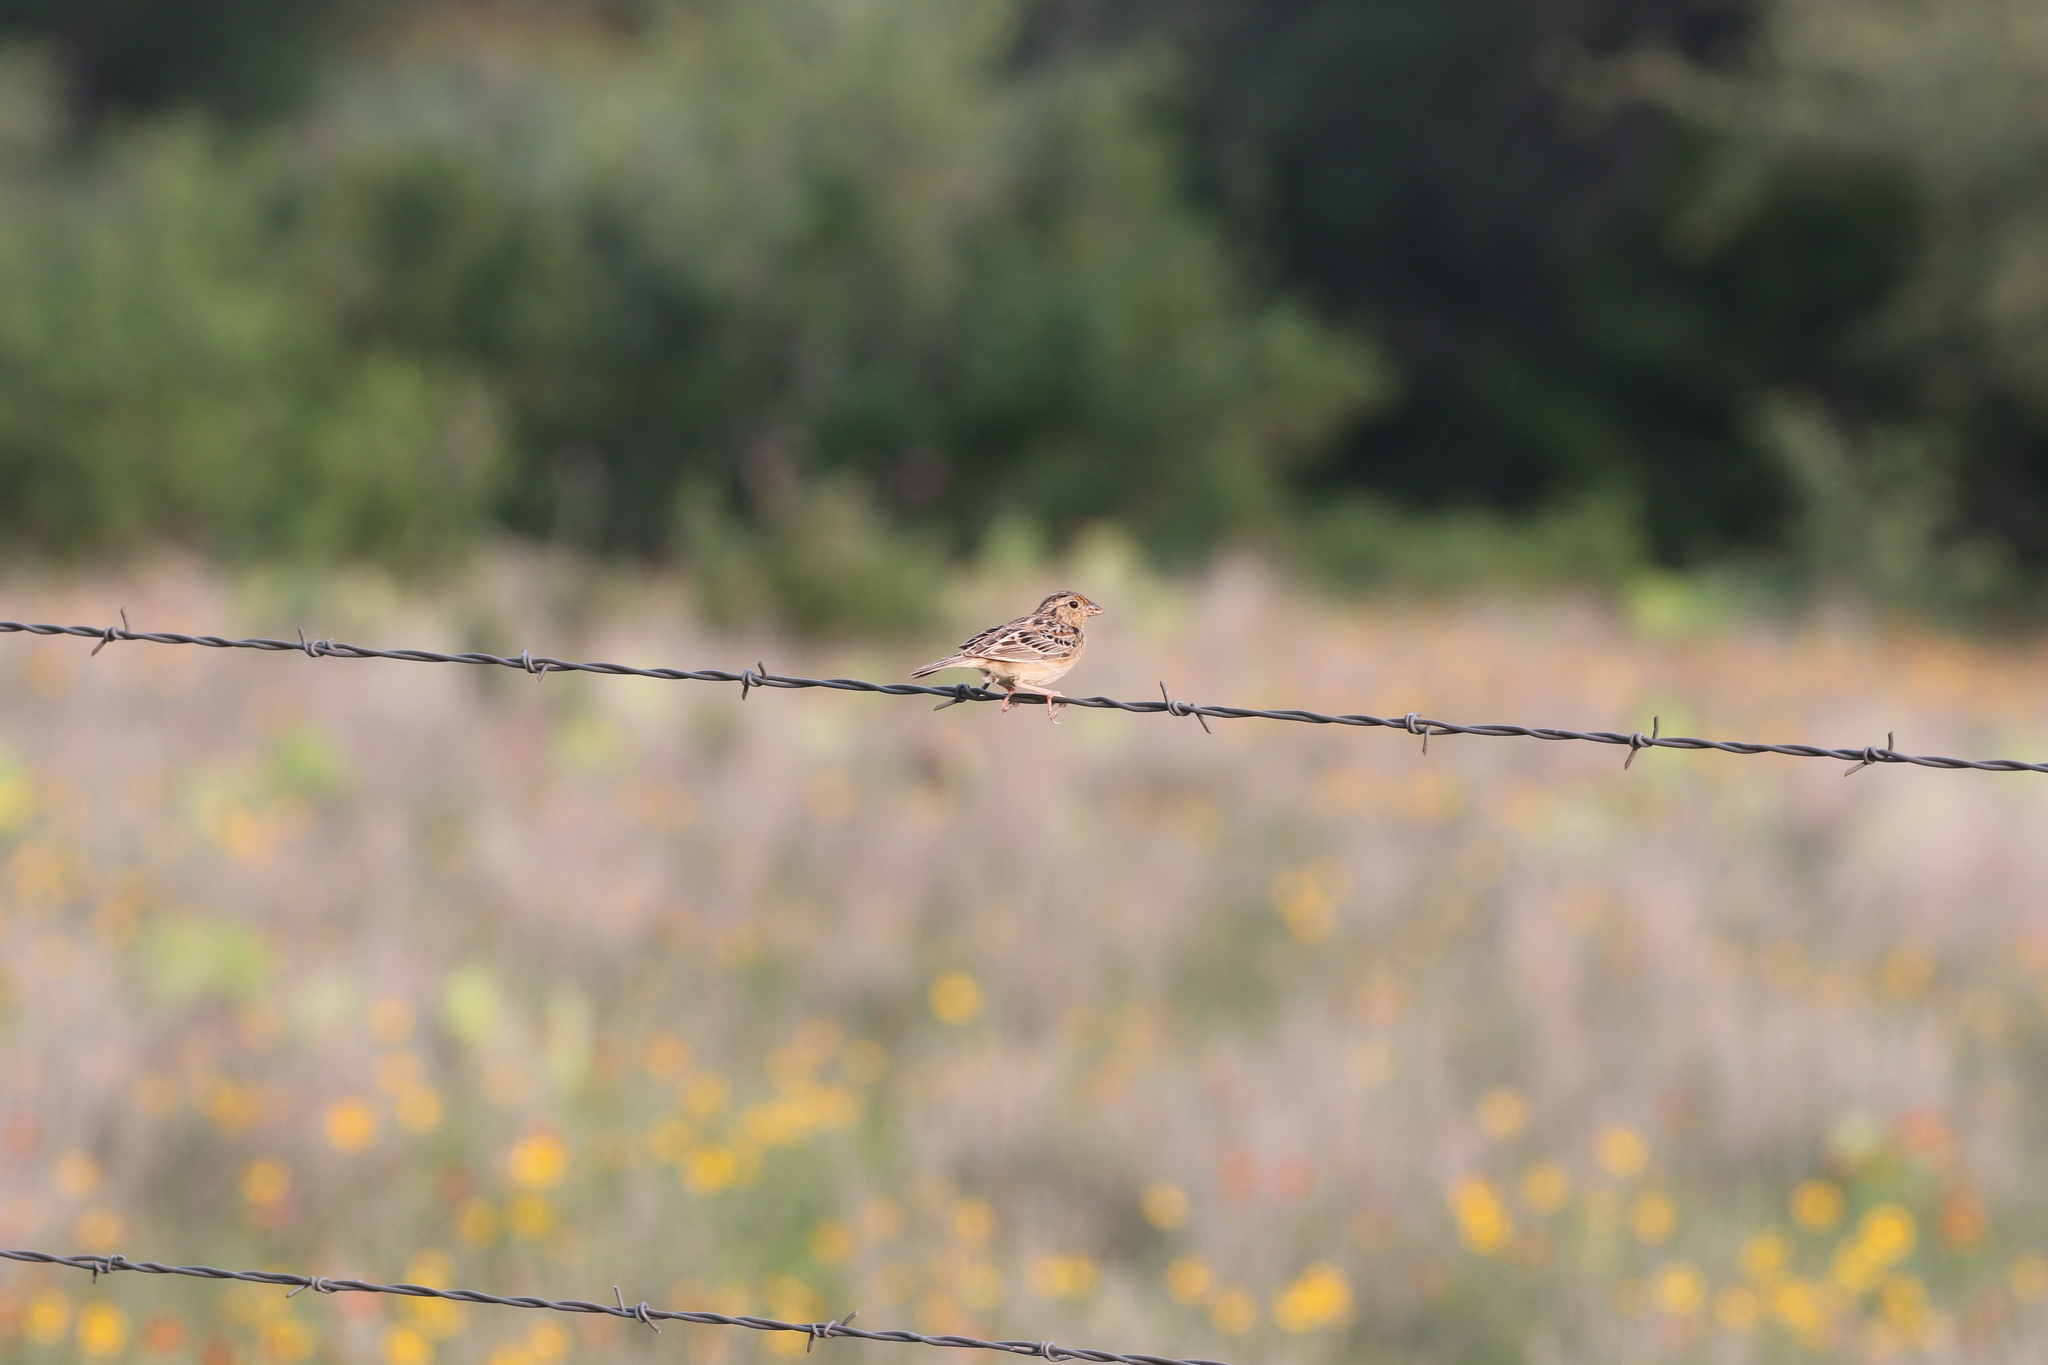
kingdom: Animalia
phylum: Chordata
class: Aves
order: Passeriformes
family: Passerellidae
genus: Ammodramus
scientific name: Ammodramus savannarum
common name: Grasshopper sparrow
